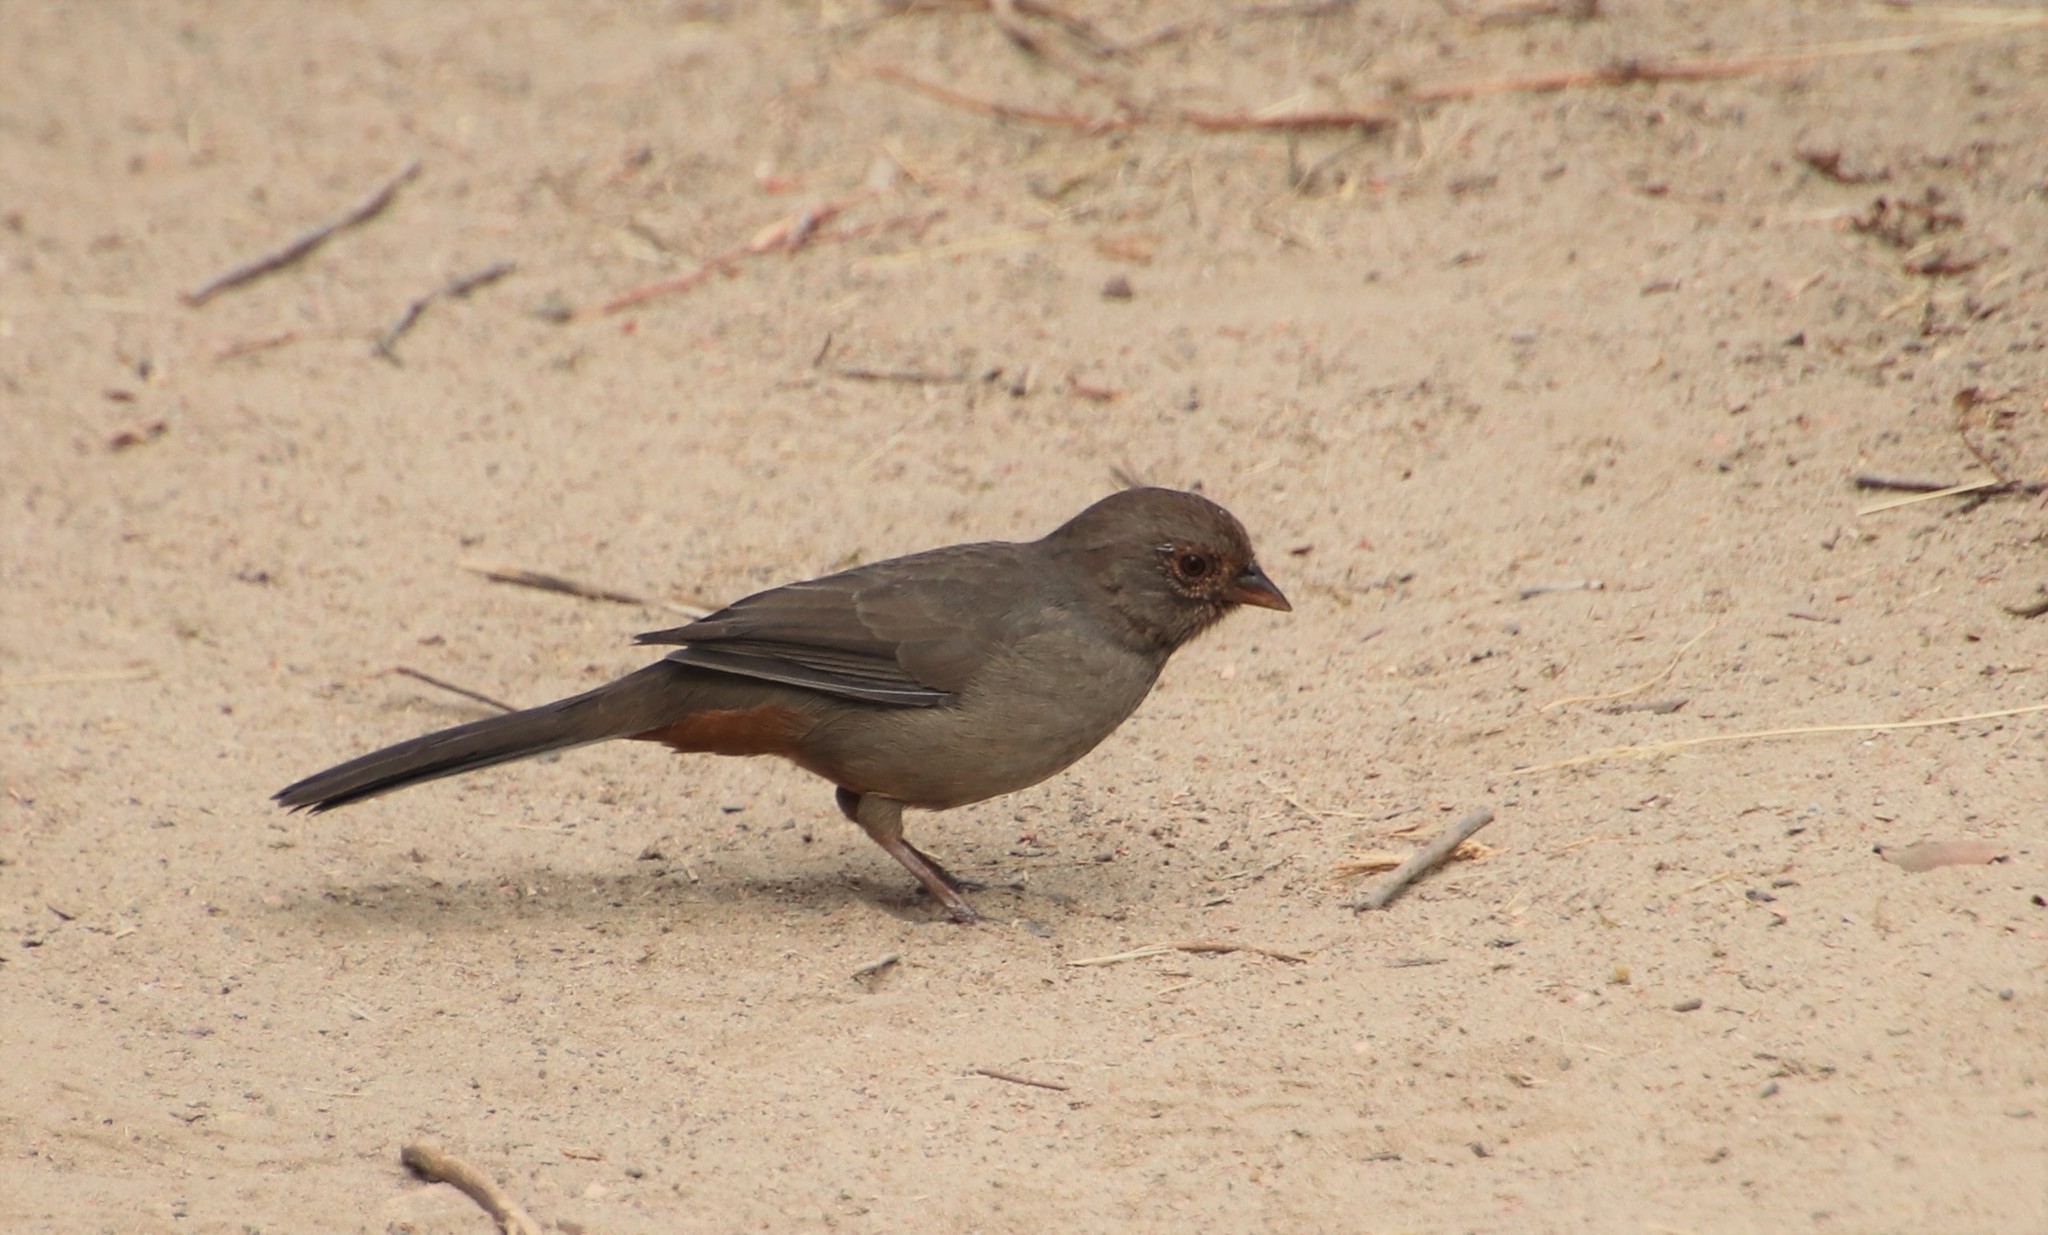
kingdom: Animalia
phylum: Chordata
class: Aves
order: Passeriformes
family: Passerellidae
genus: Melozone
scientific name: Melozone crissalis
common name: California towhee
